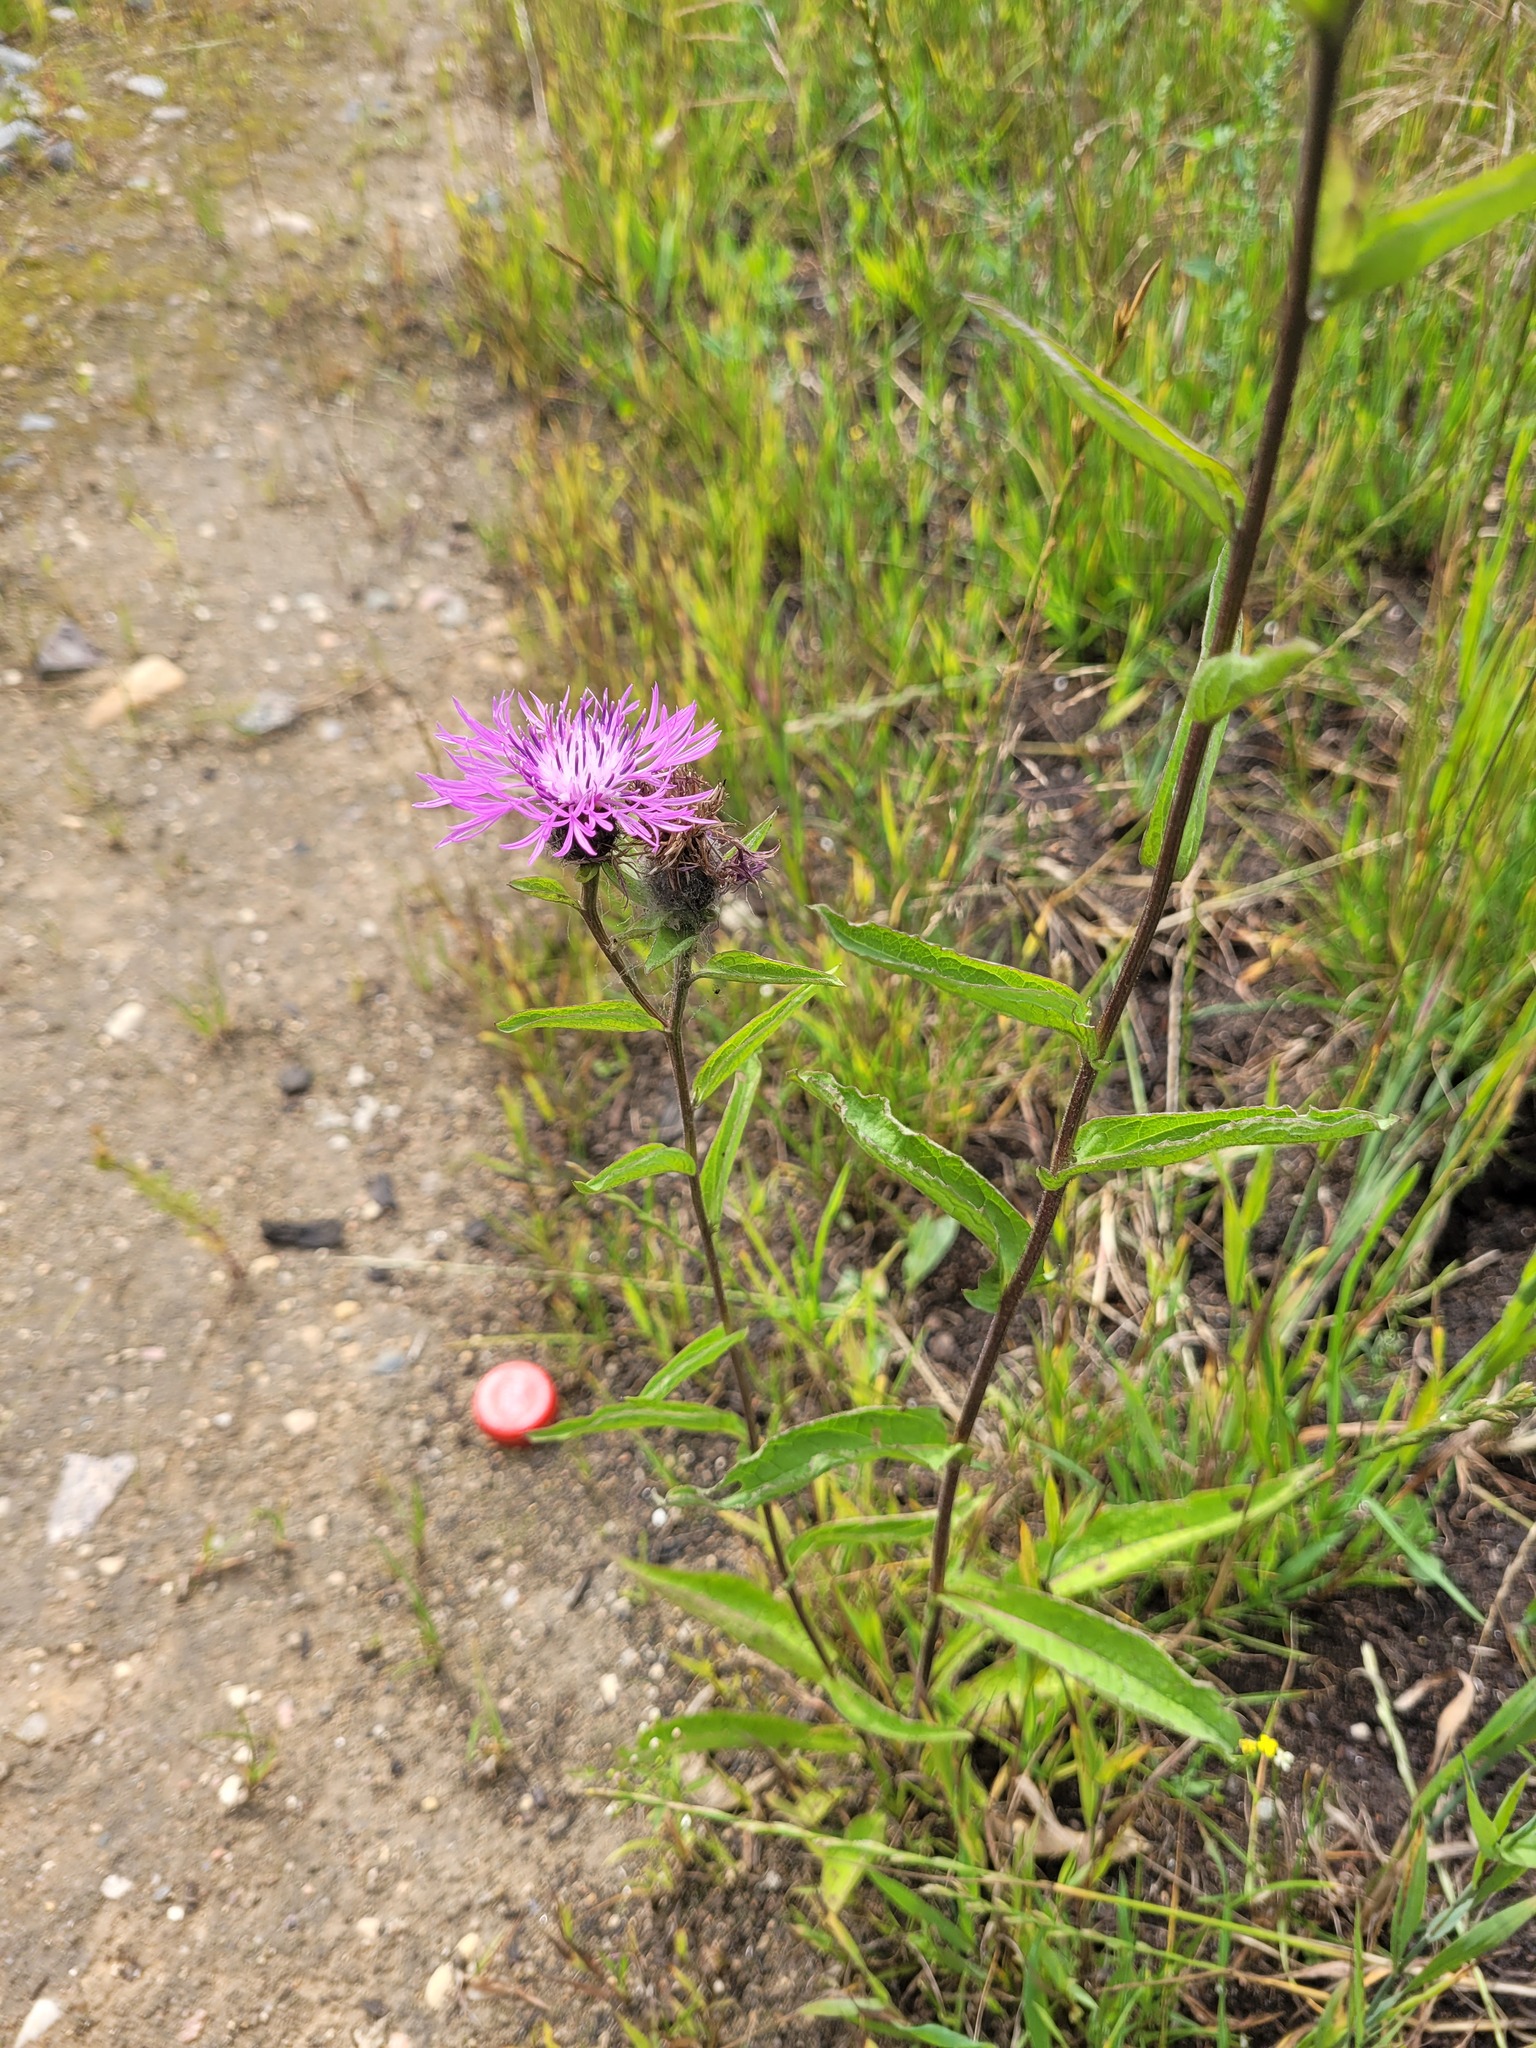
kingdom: Plantae
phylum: Tracheophyta
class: Magnoliopsida
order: Asterales
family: Asteraceae
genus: Centaurea
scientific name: Centaurea phrygia
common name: Wig knapweed
